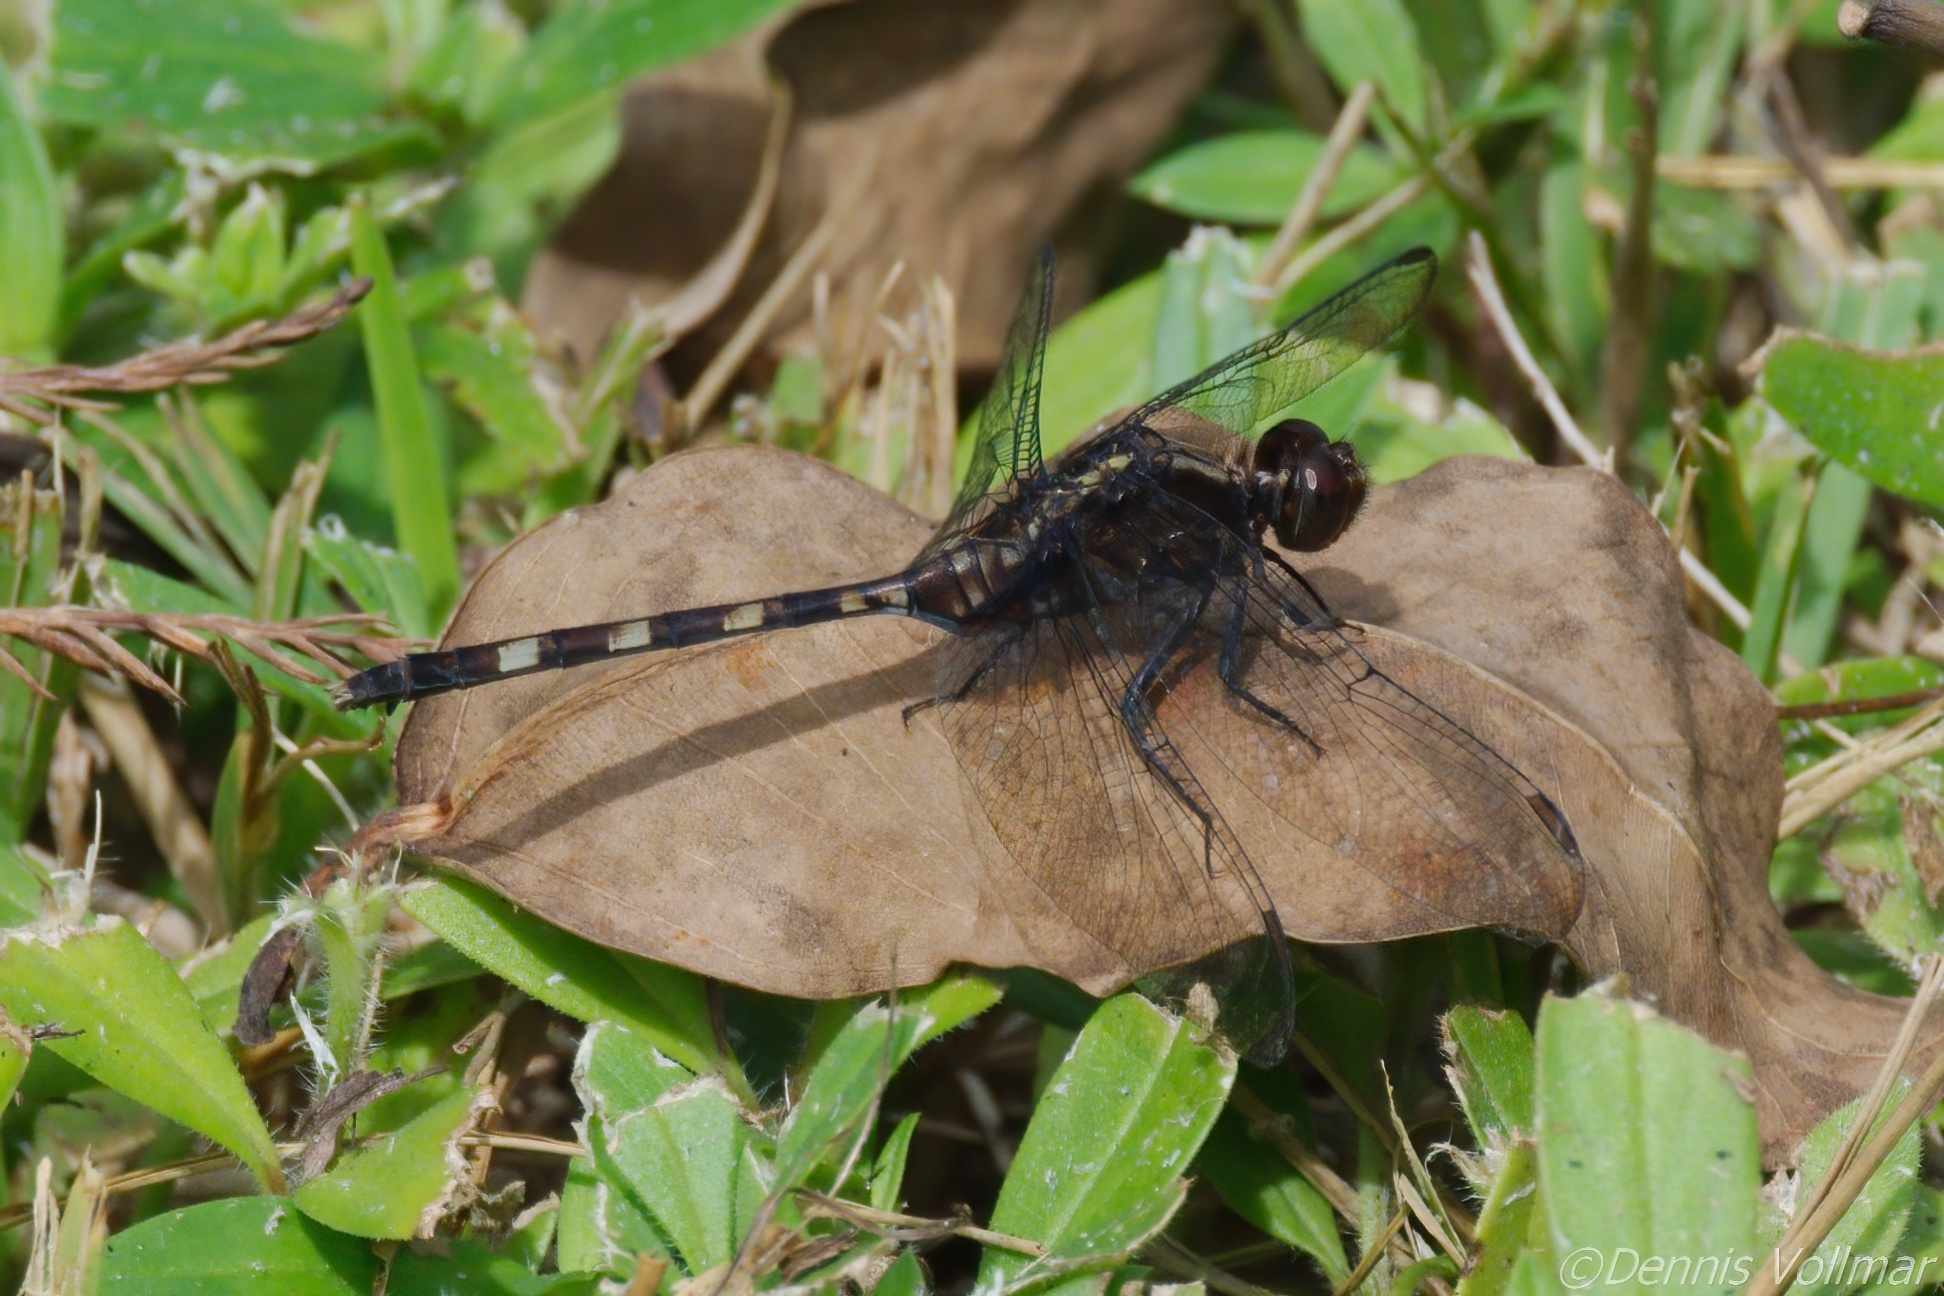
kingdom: Animalia
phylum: Arthropoda
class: Insecta
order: Odonata
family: Libellulidae
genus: Erythemis
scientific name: Erythemis plebeja
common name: Pin-tailed pondhawk
